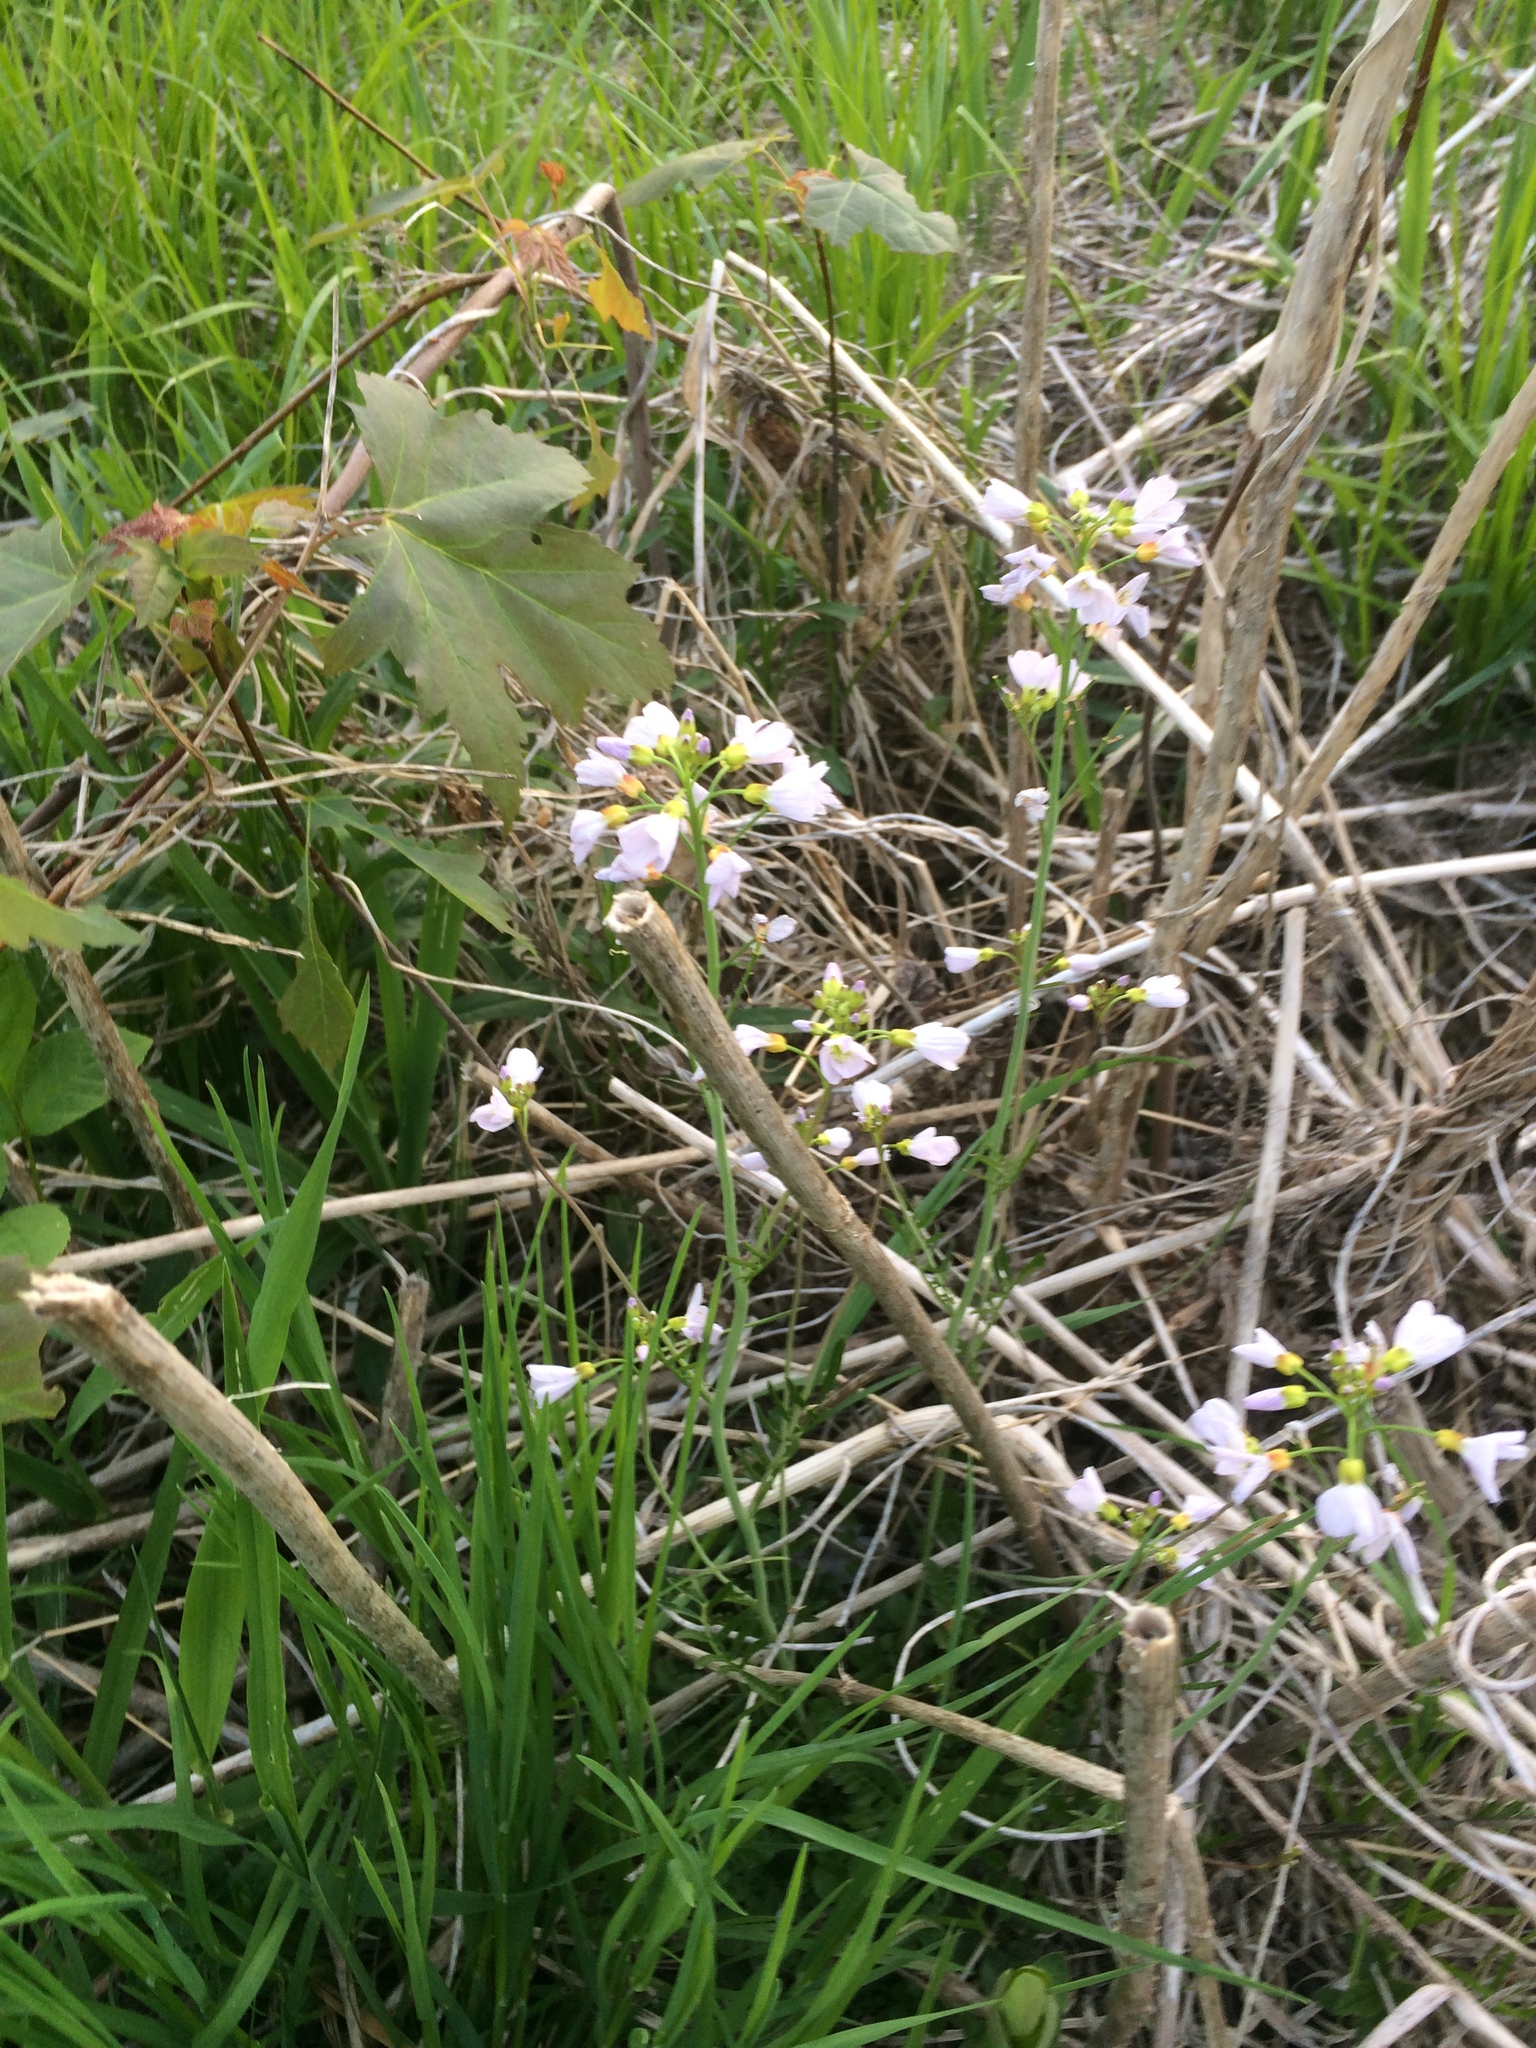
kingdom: Plantae
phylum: Tracheophyta
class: Magnoliopsida
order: Brassicales
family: Brassicaceae
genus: Cardamine
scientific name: Cardamine pratensis
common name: Cuckoo flower
